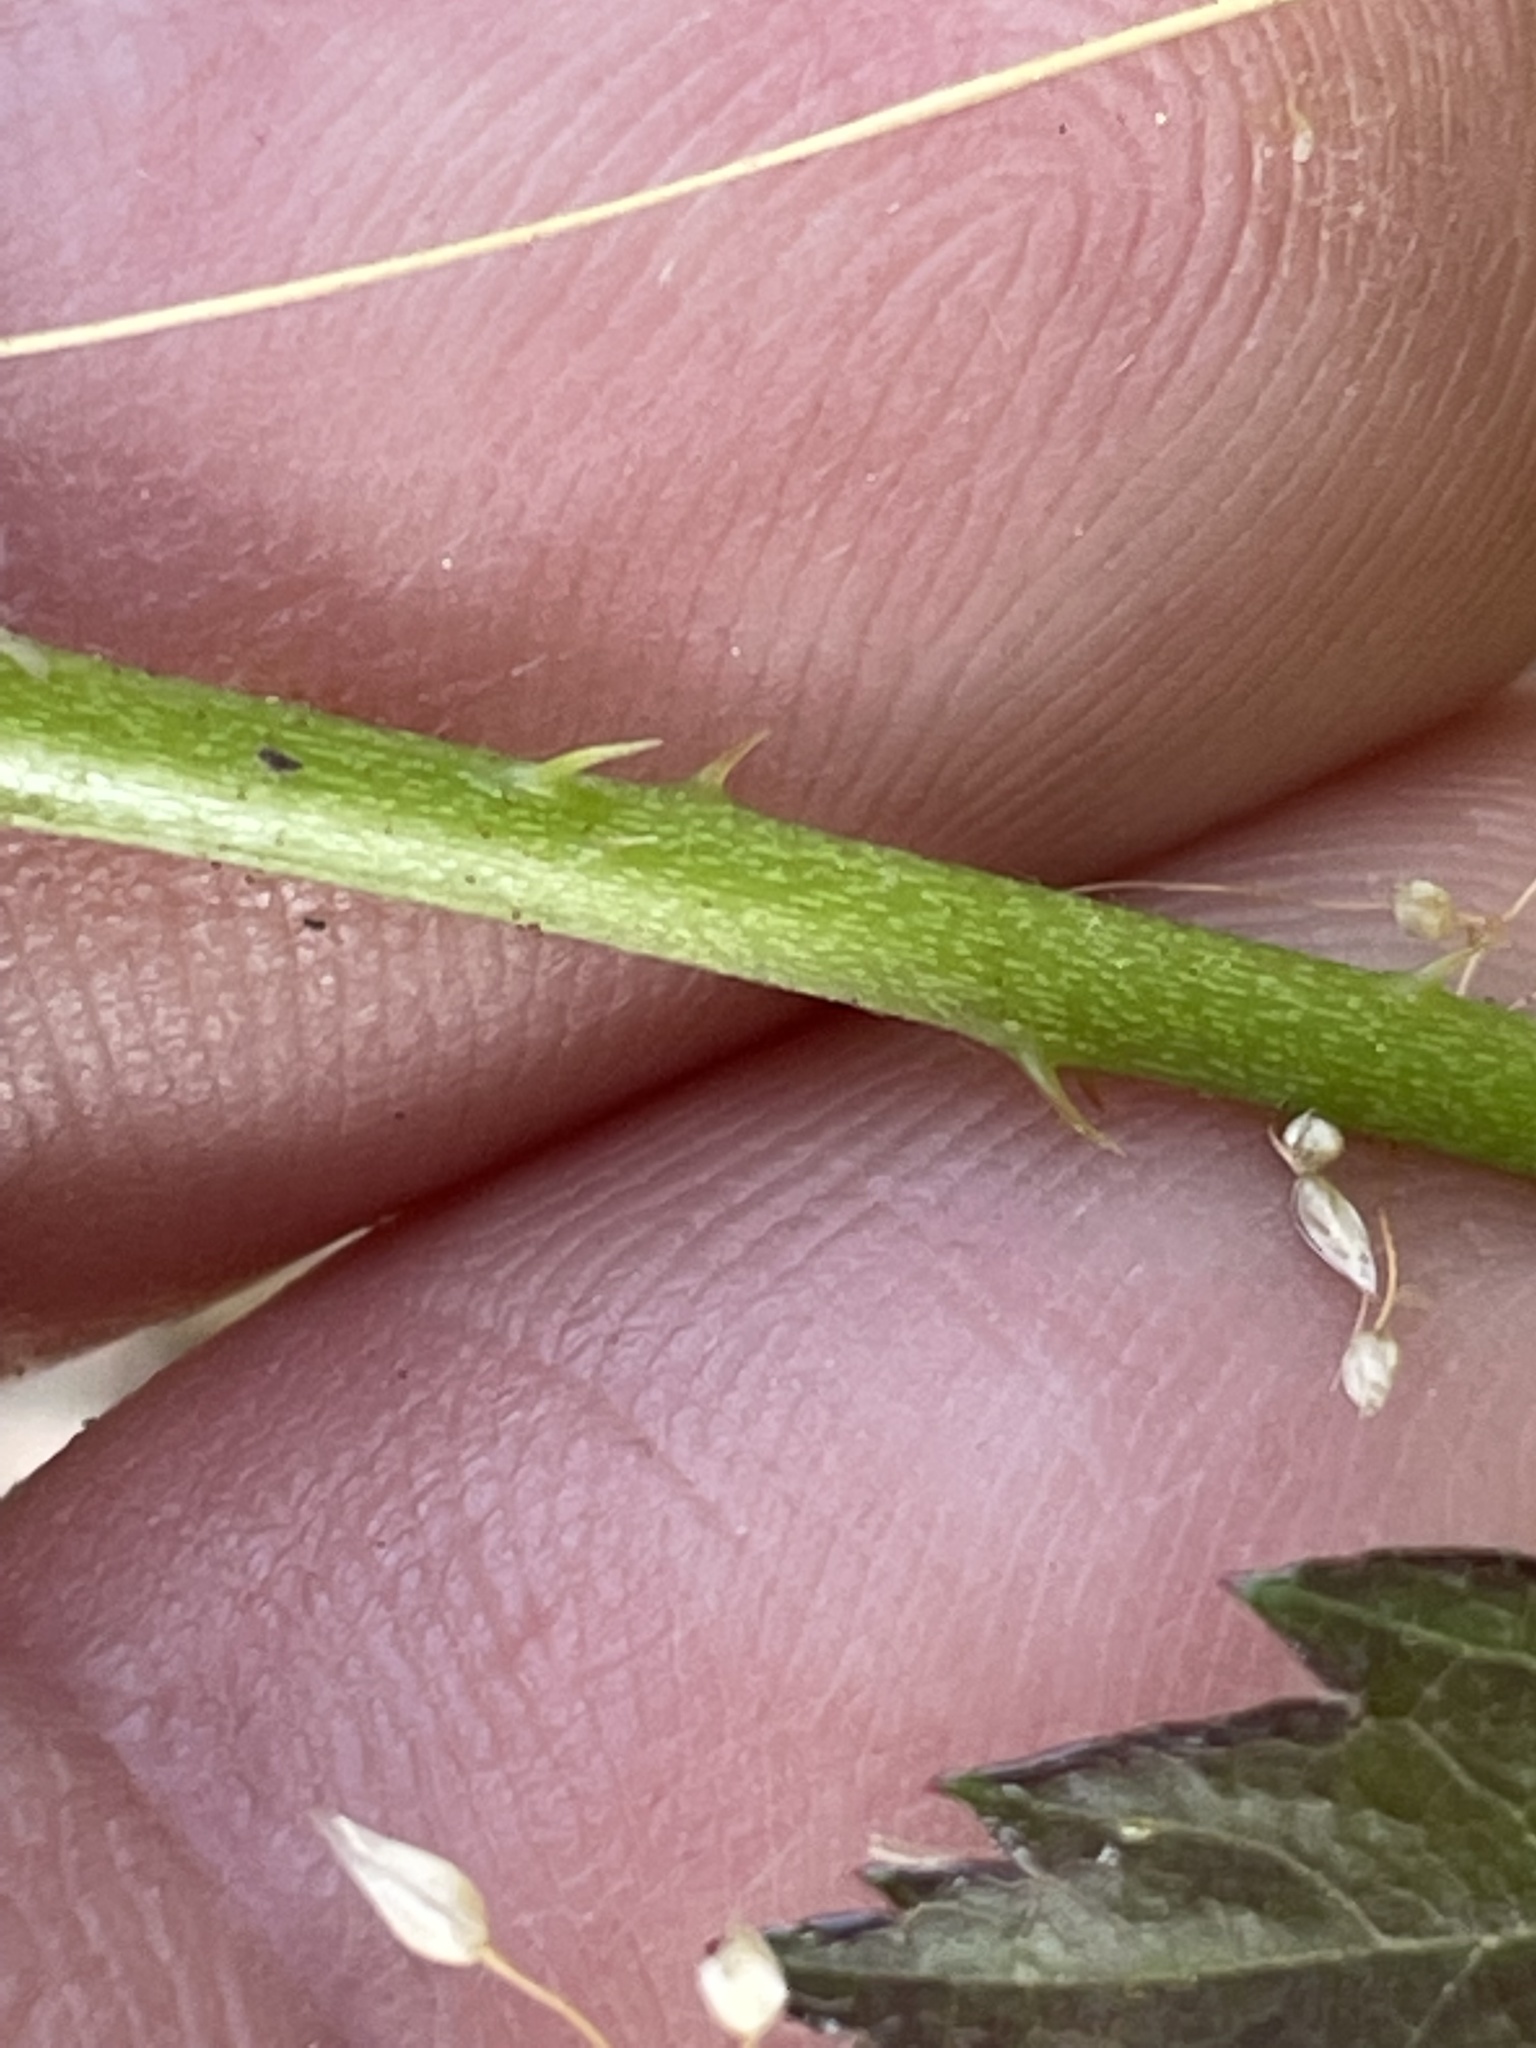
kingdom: Plantae
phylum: Tracheophyta
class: Magnoliopsida
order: Rosales
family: Rosaceae
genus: Rubus
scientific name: Rubus flagellaris
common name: American dewberry
